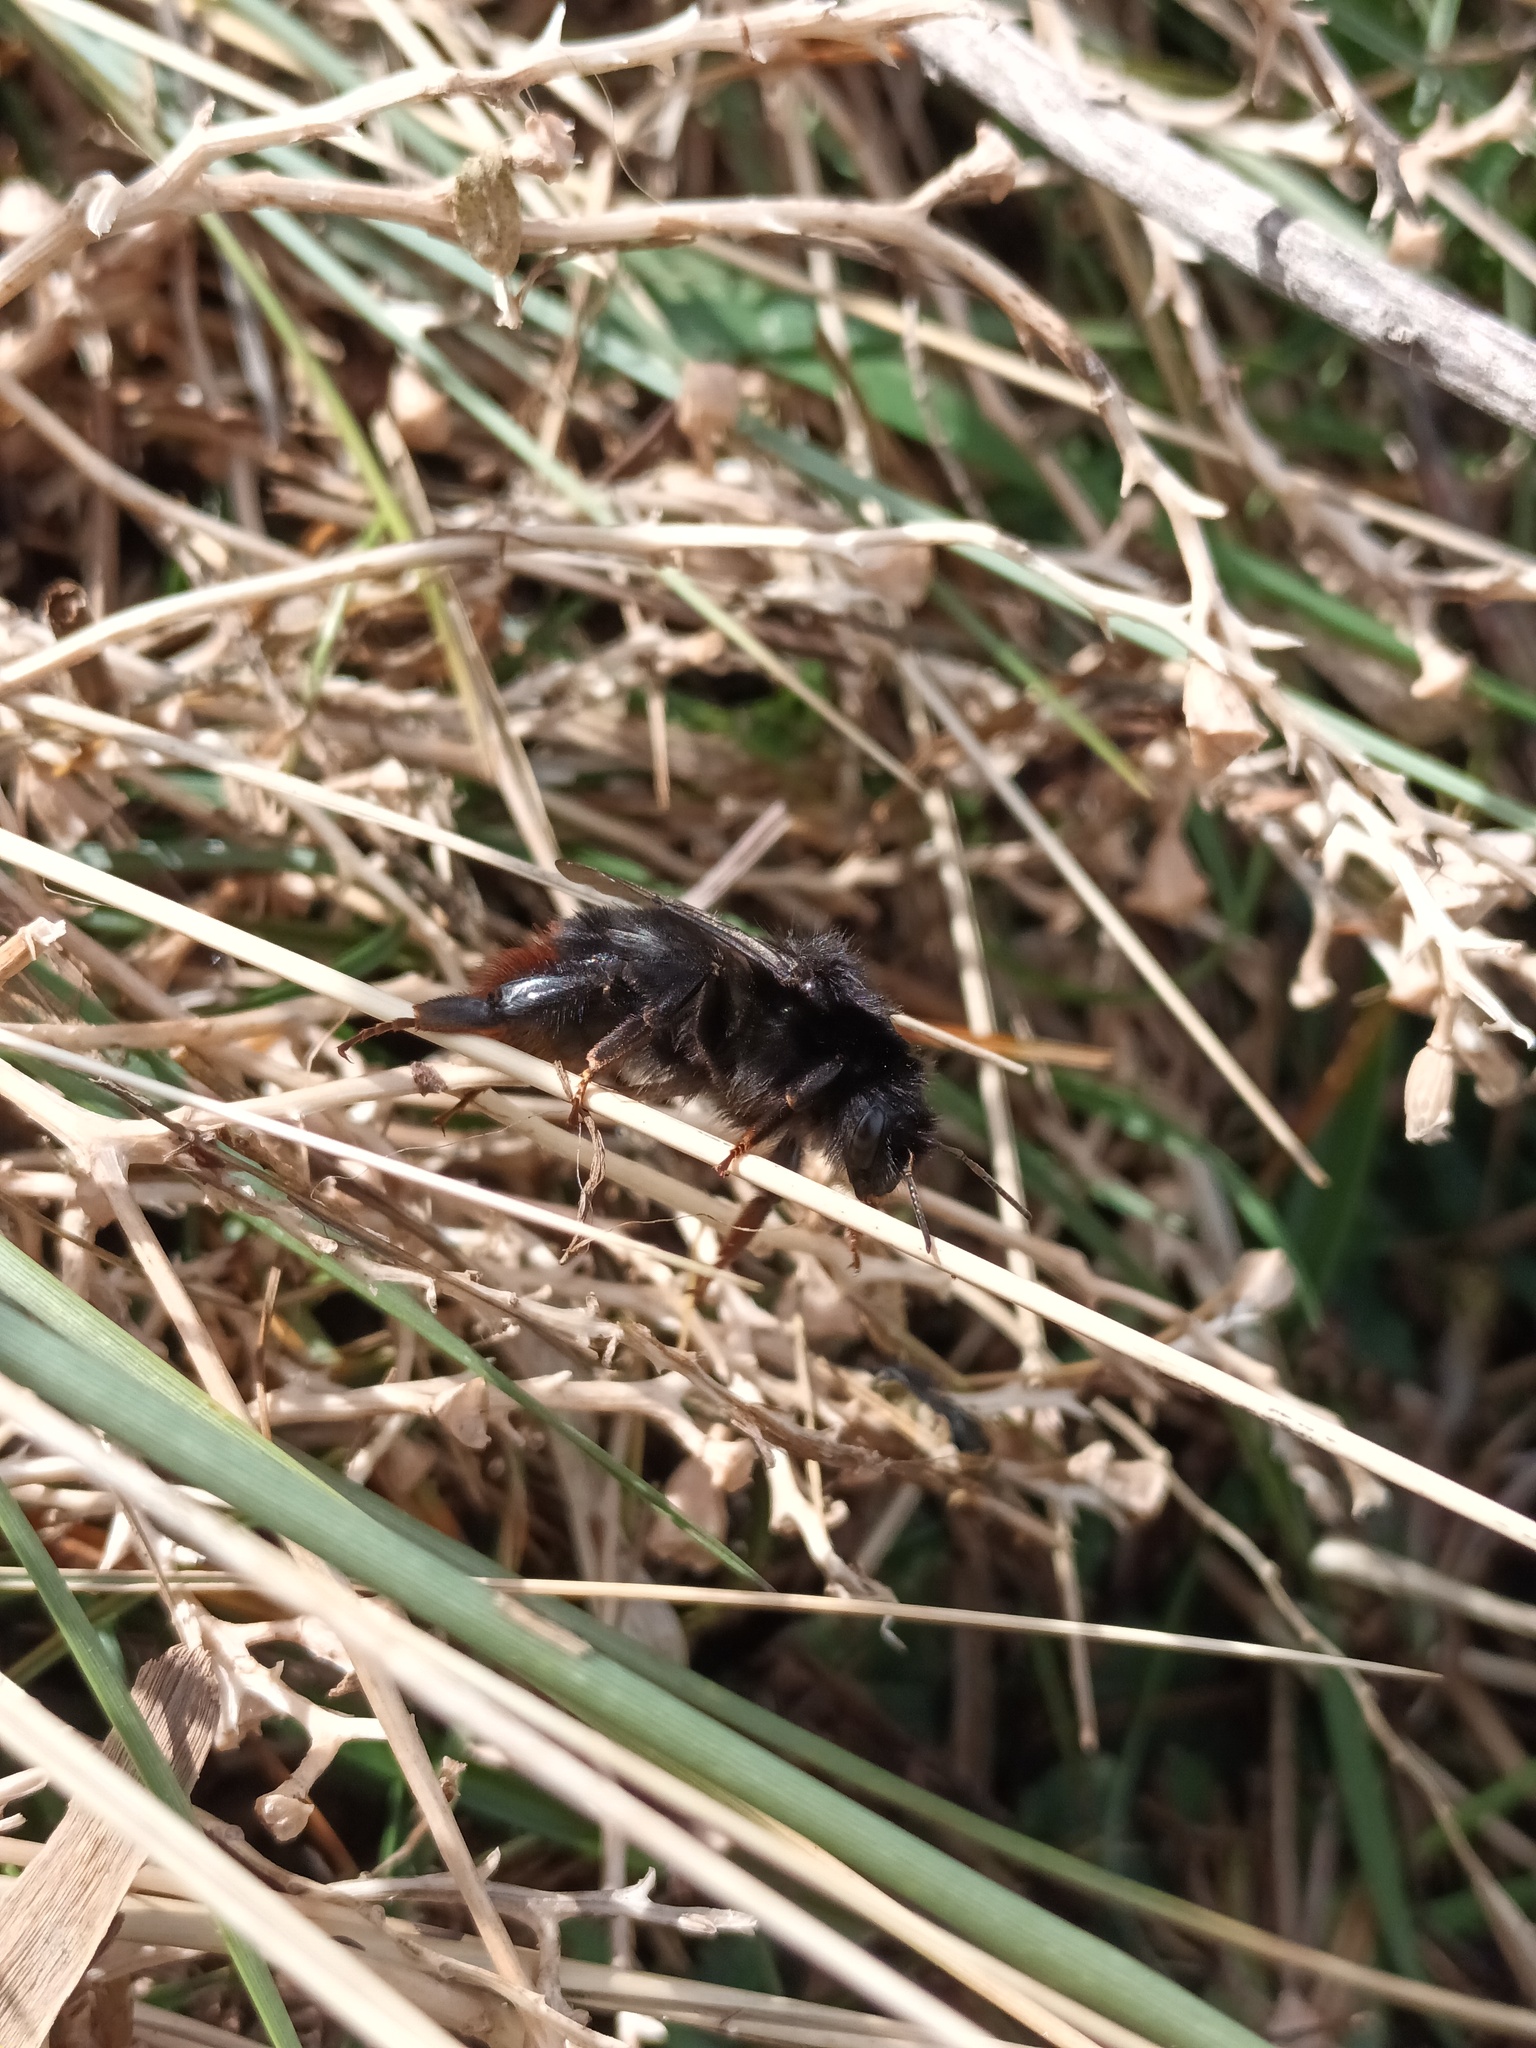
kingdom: Animalia
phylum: Arthropoda
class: Insecta
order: Hymenoptera
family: Apidae
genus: Bombus
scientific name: Bombus lapidarius
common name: Large red-tailed humble-bee
